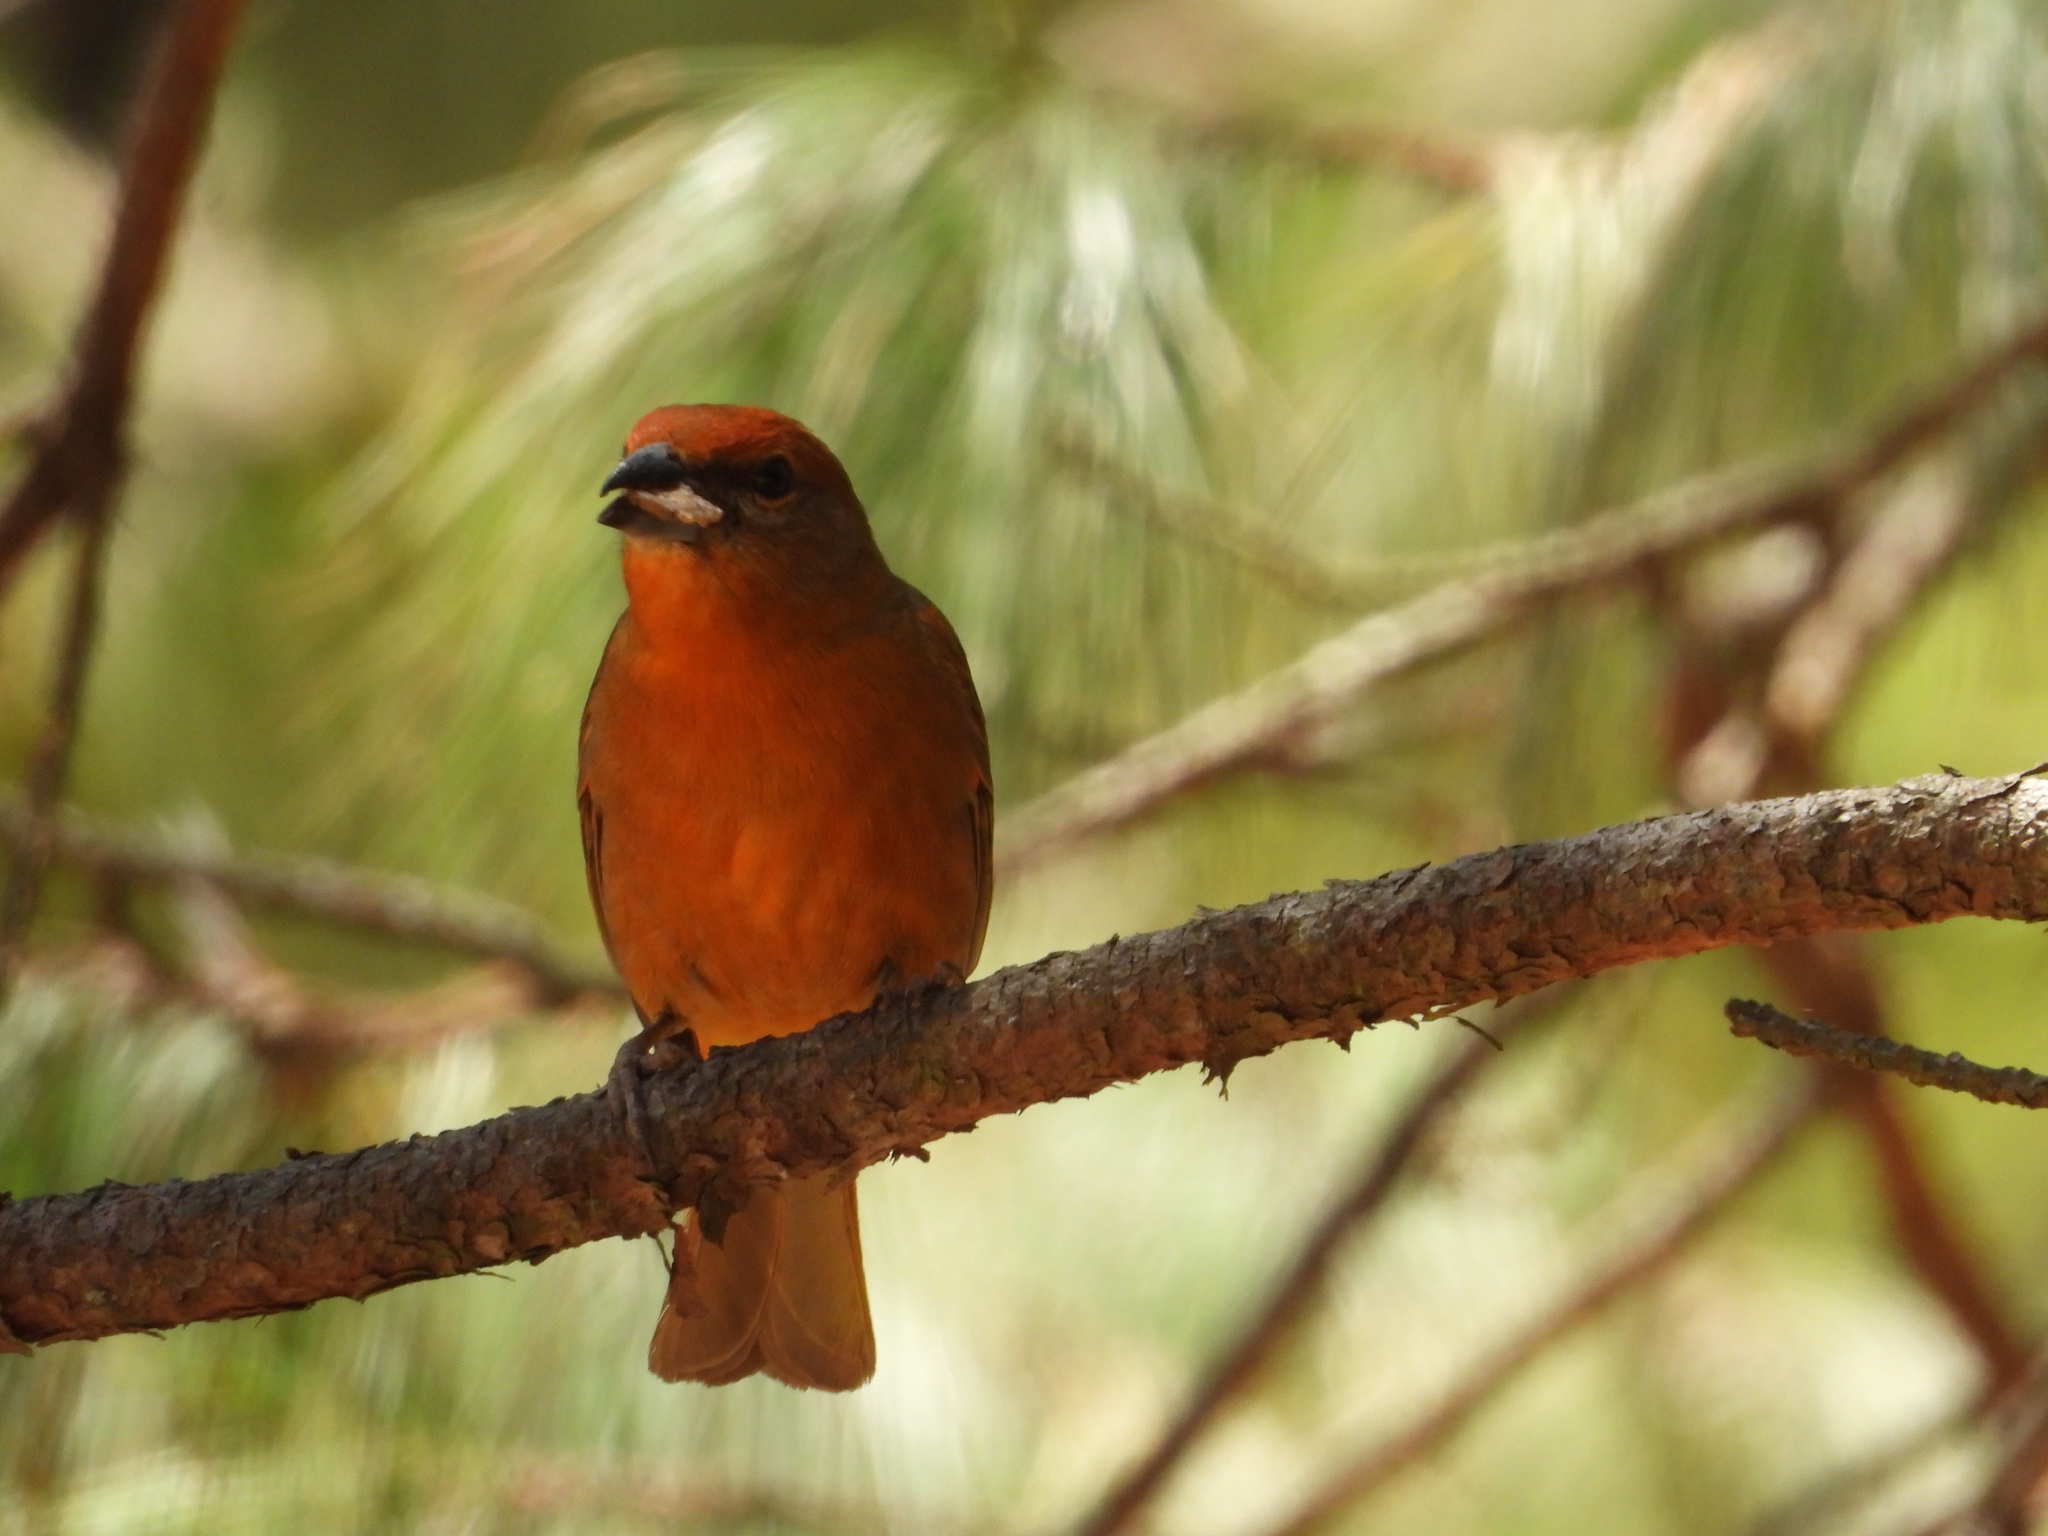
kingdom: Animalia
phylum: Chordata
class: Aves
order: Passeriformes
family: Cardinalidae
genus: Piranga
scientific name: Piranga flava
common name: Red tanager
